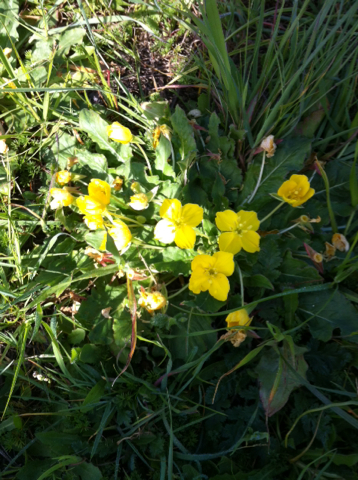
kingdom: Plantae
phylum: Tracheophyta
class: Magnoliopsida
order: Myrtales
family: Onagraceae
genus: Taraxia
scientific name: Taraxia ovata
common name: Goldeneggs
